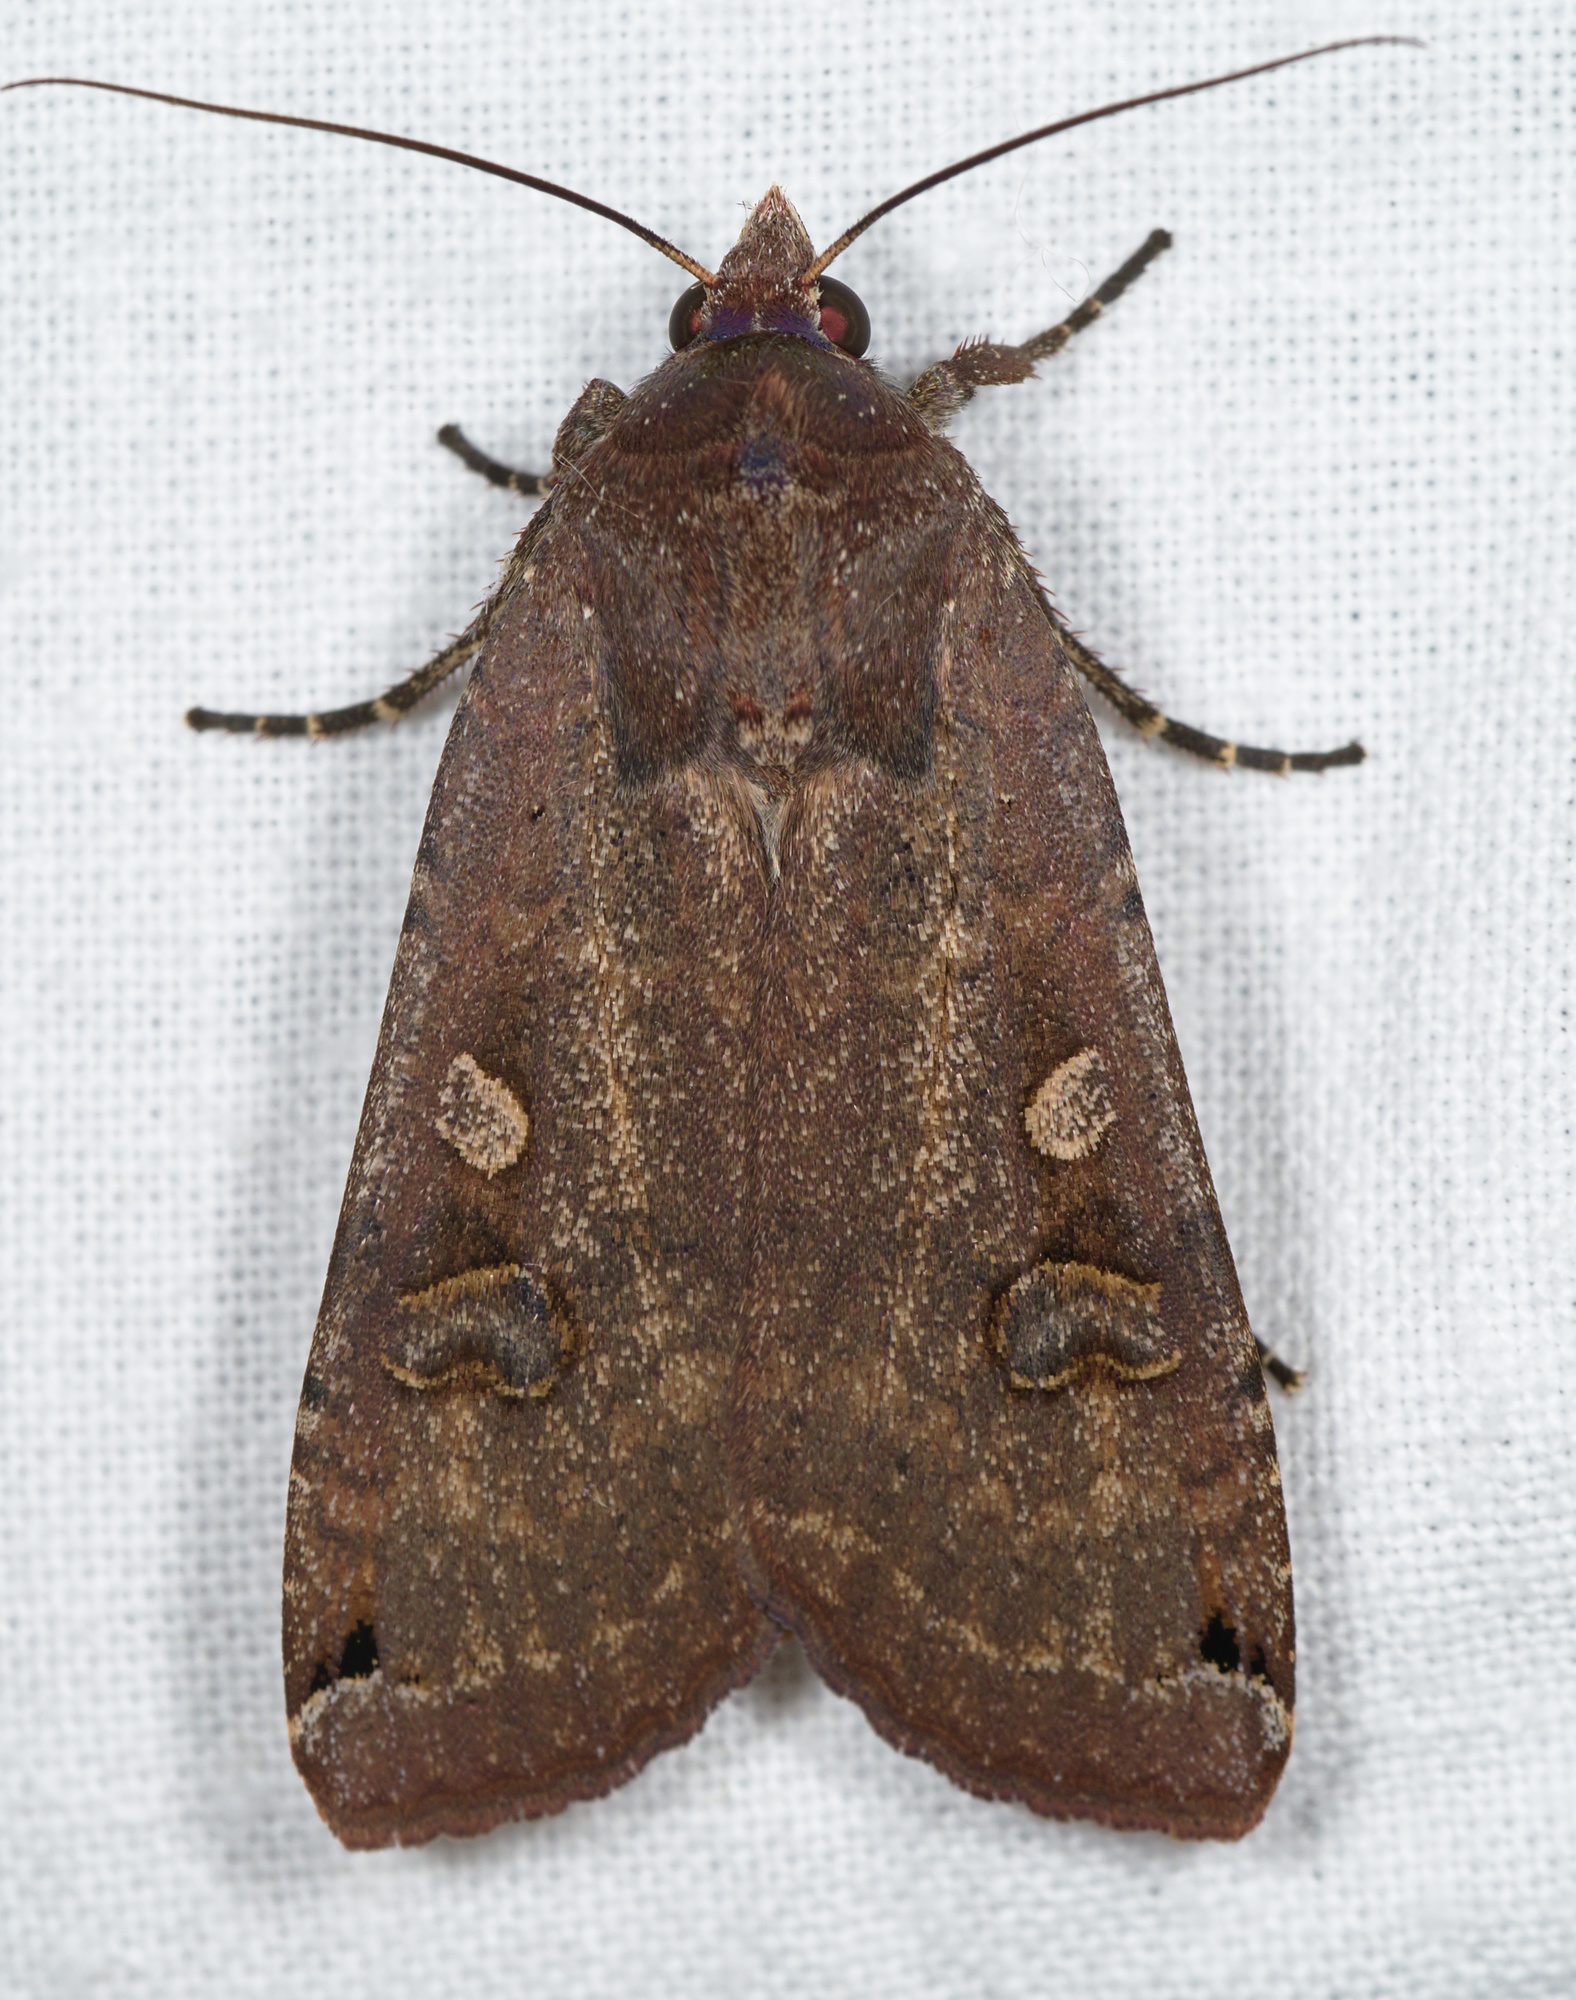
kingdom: Animalia
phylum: Arthropoda
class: Insecta
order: Lepidoptera
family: Noctuidae
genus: Noctua
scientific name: Noctua pronuba
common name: Large yellow underwing
